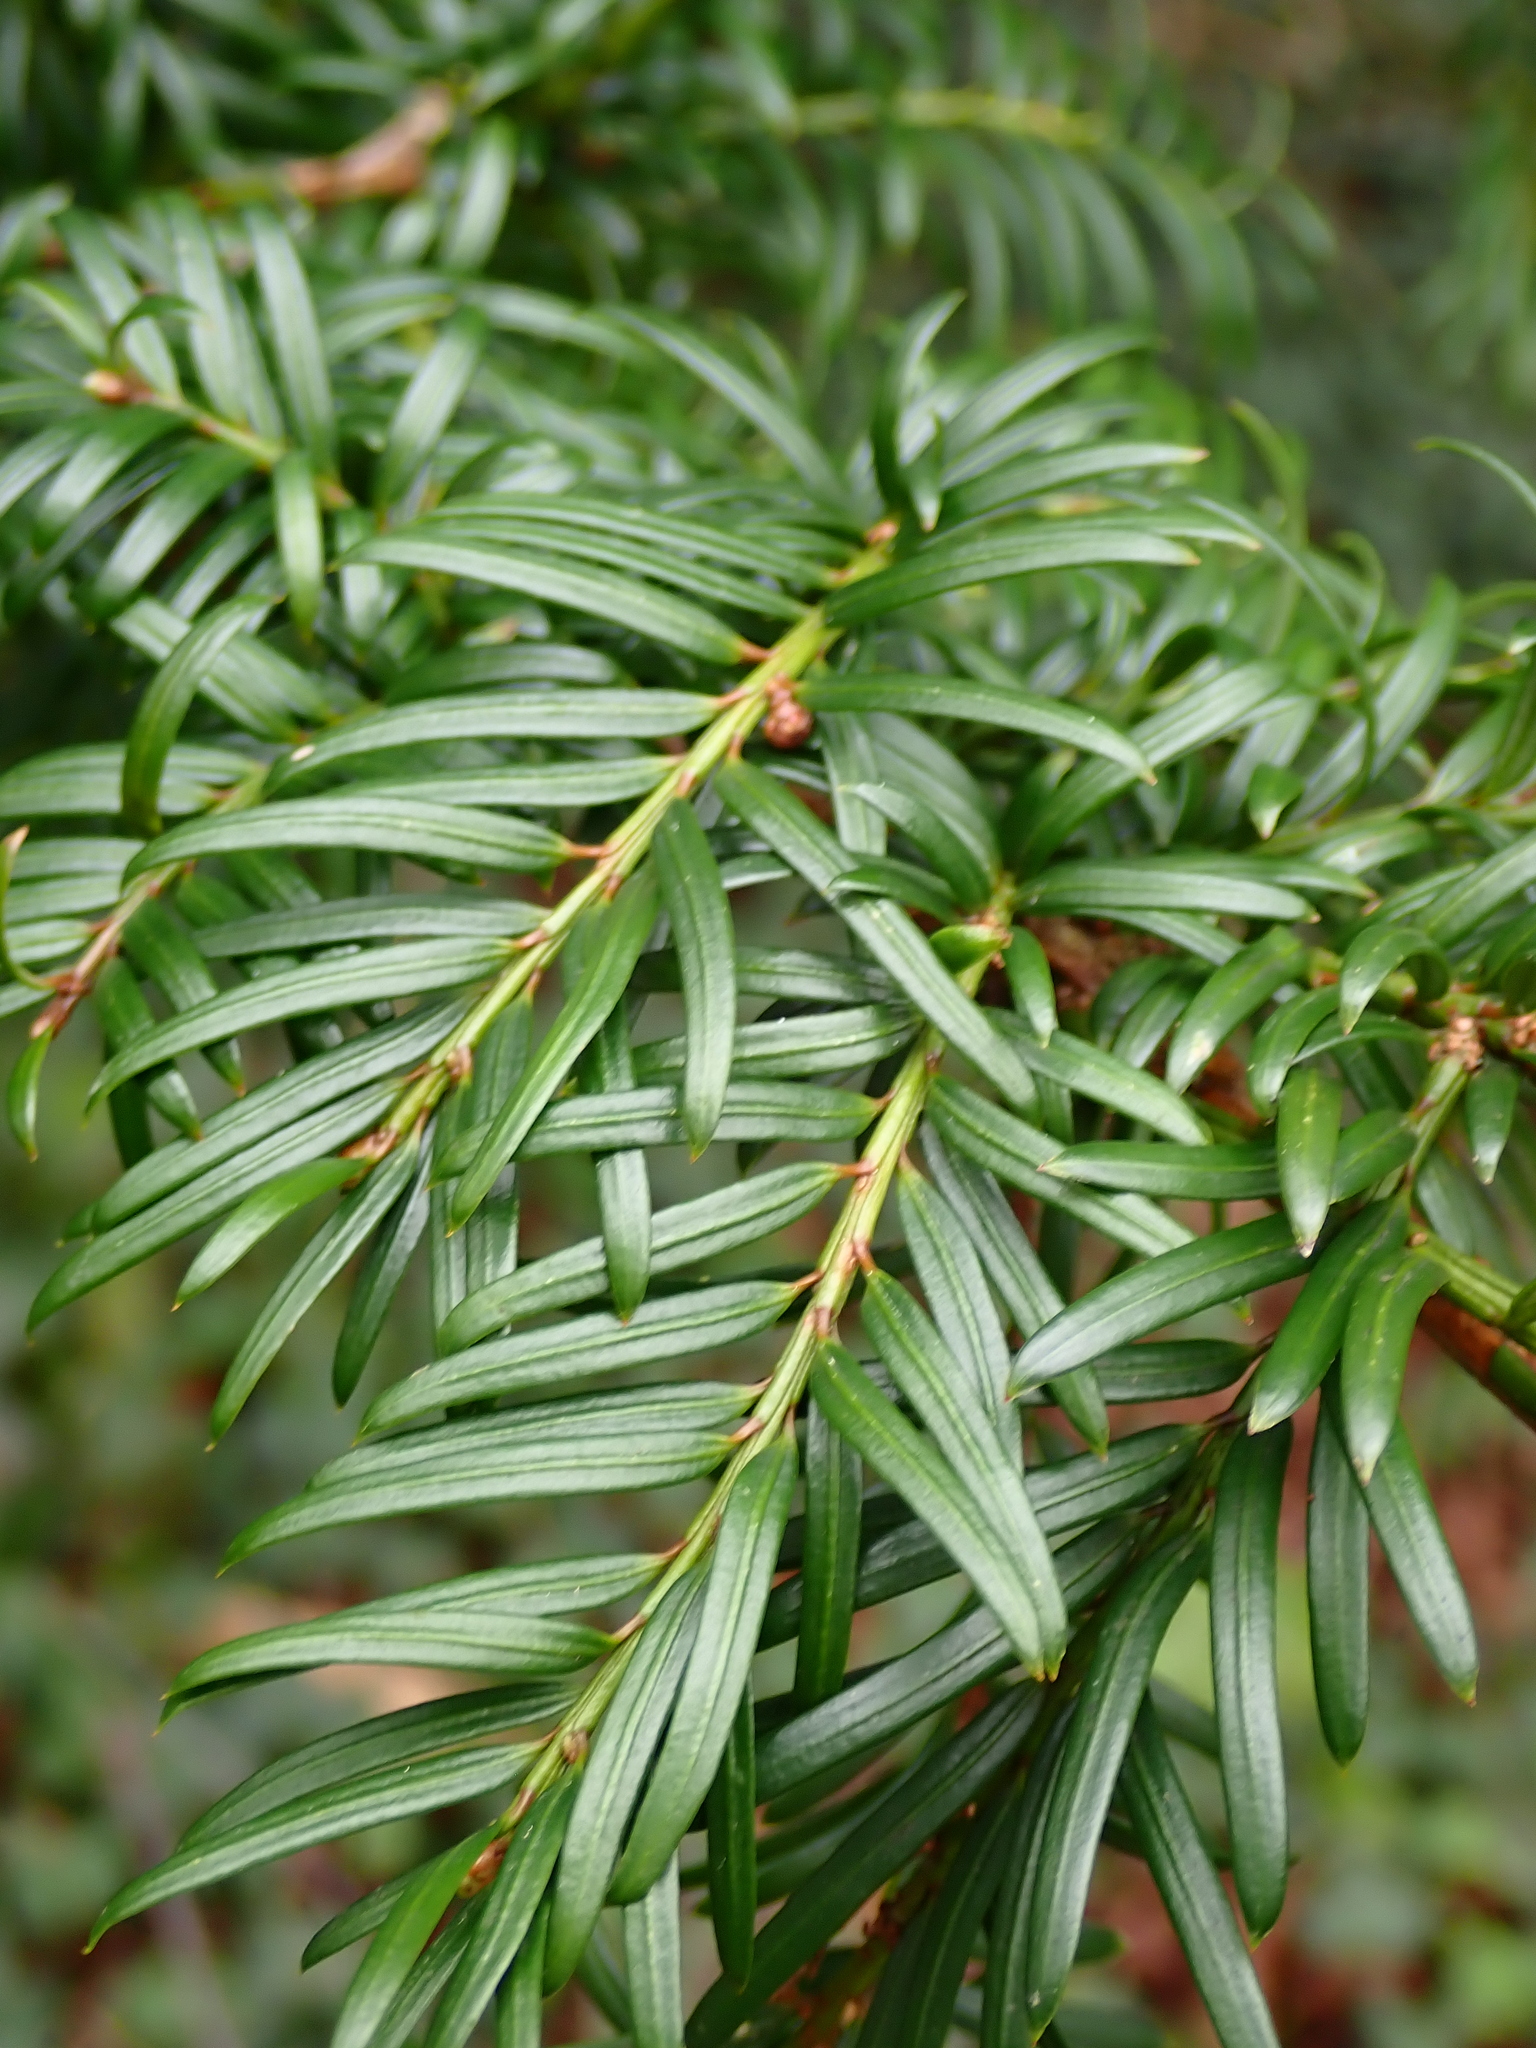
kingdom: Plantae
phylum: Tracheophyta
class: Pinopsida
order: Pinales
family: Taxaceae
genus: Taxus
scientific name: Taxus baccata
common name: Yew
